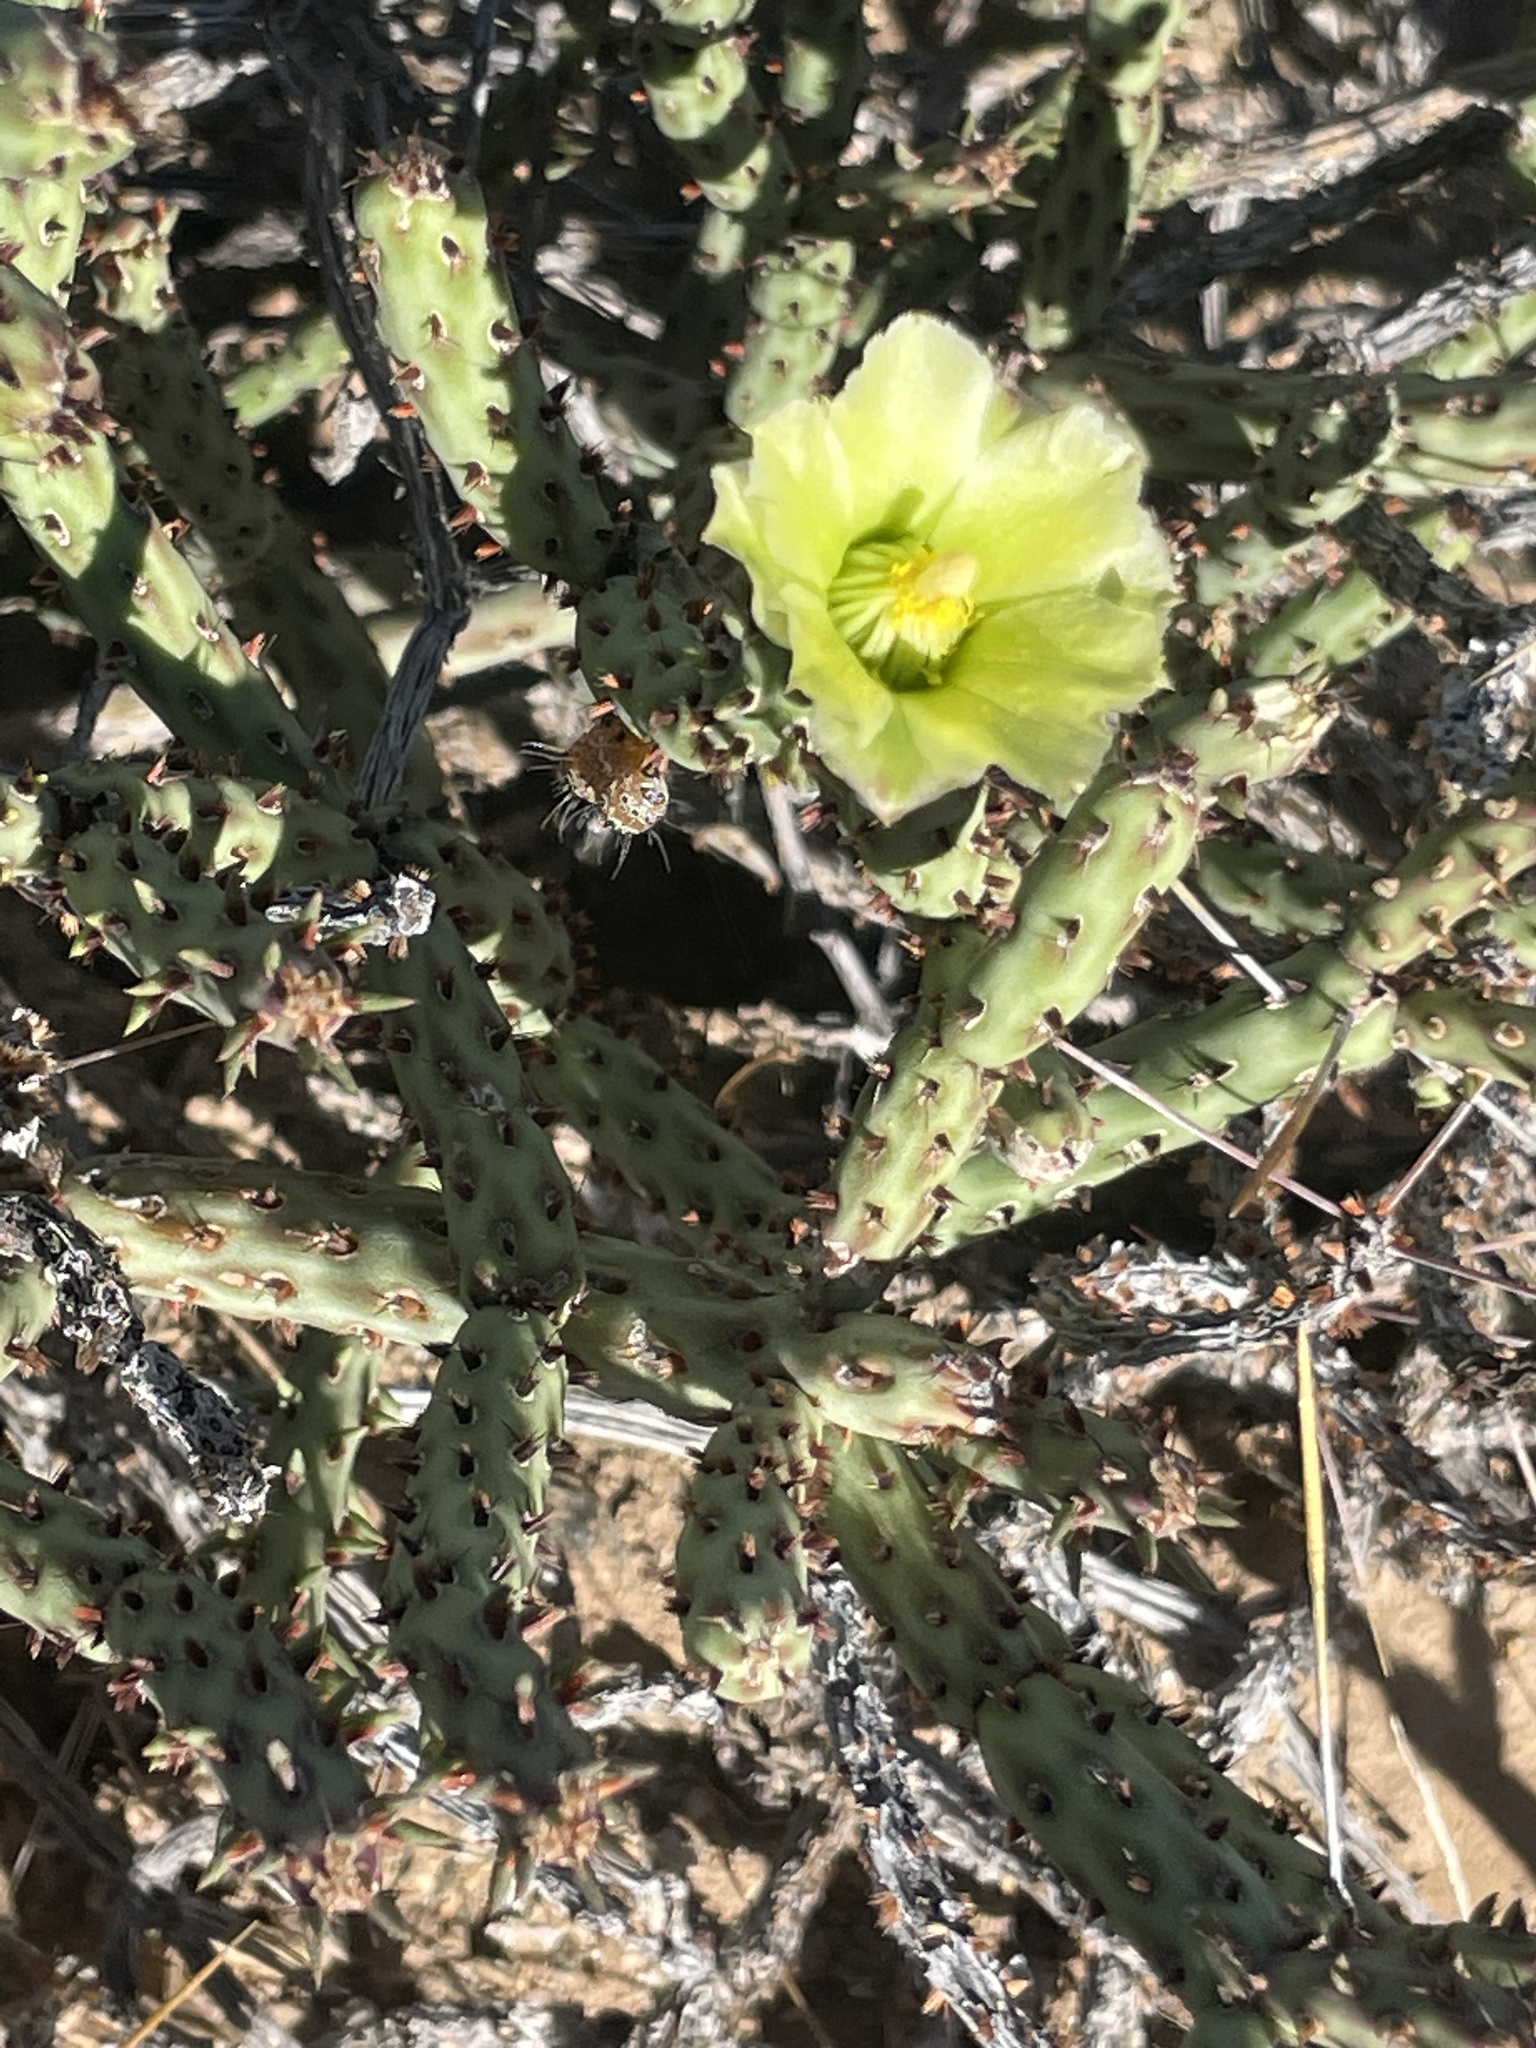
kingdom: Plantae
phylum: Tracheophyta
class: Magnoliopsida
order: Caryophyllales
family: Cactaceae
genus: Cylindropuntia
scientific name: Cylindropuntia tesajo
